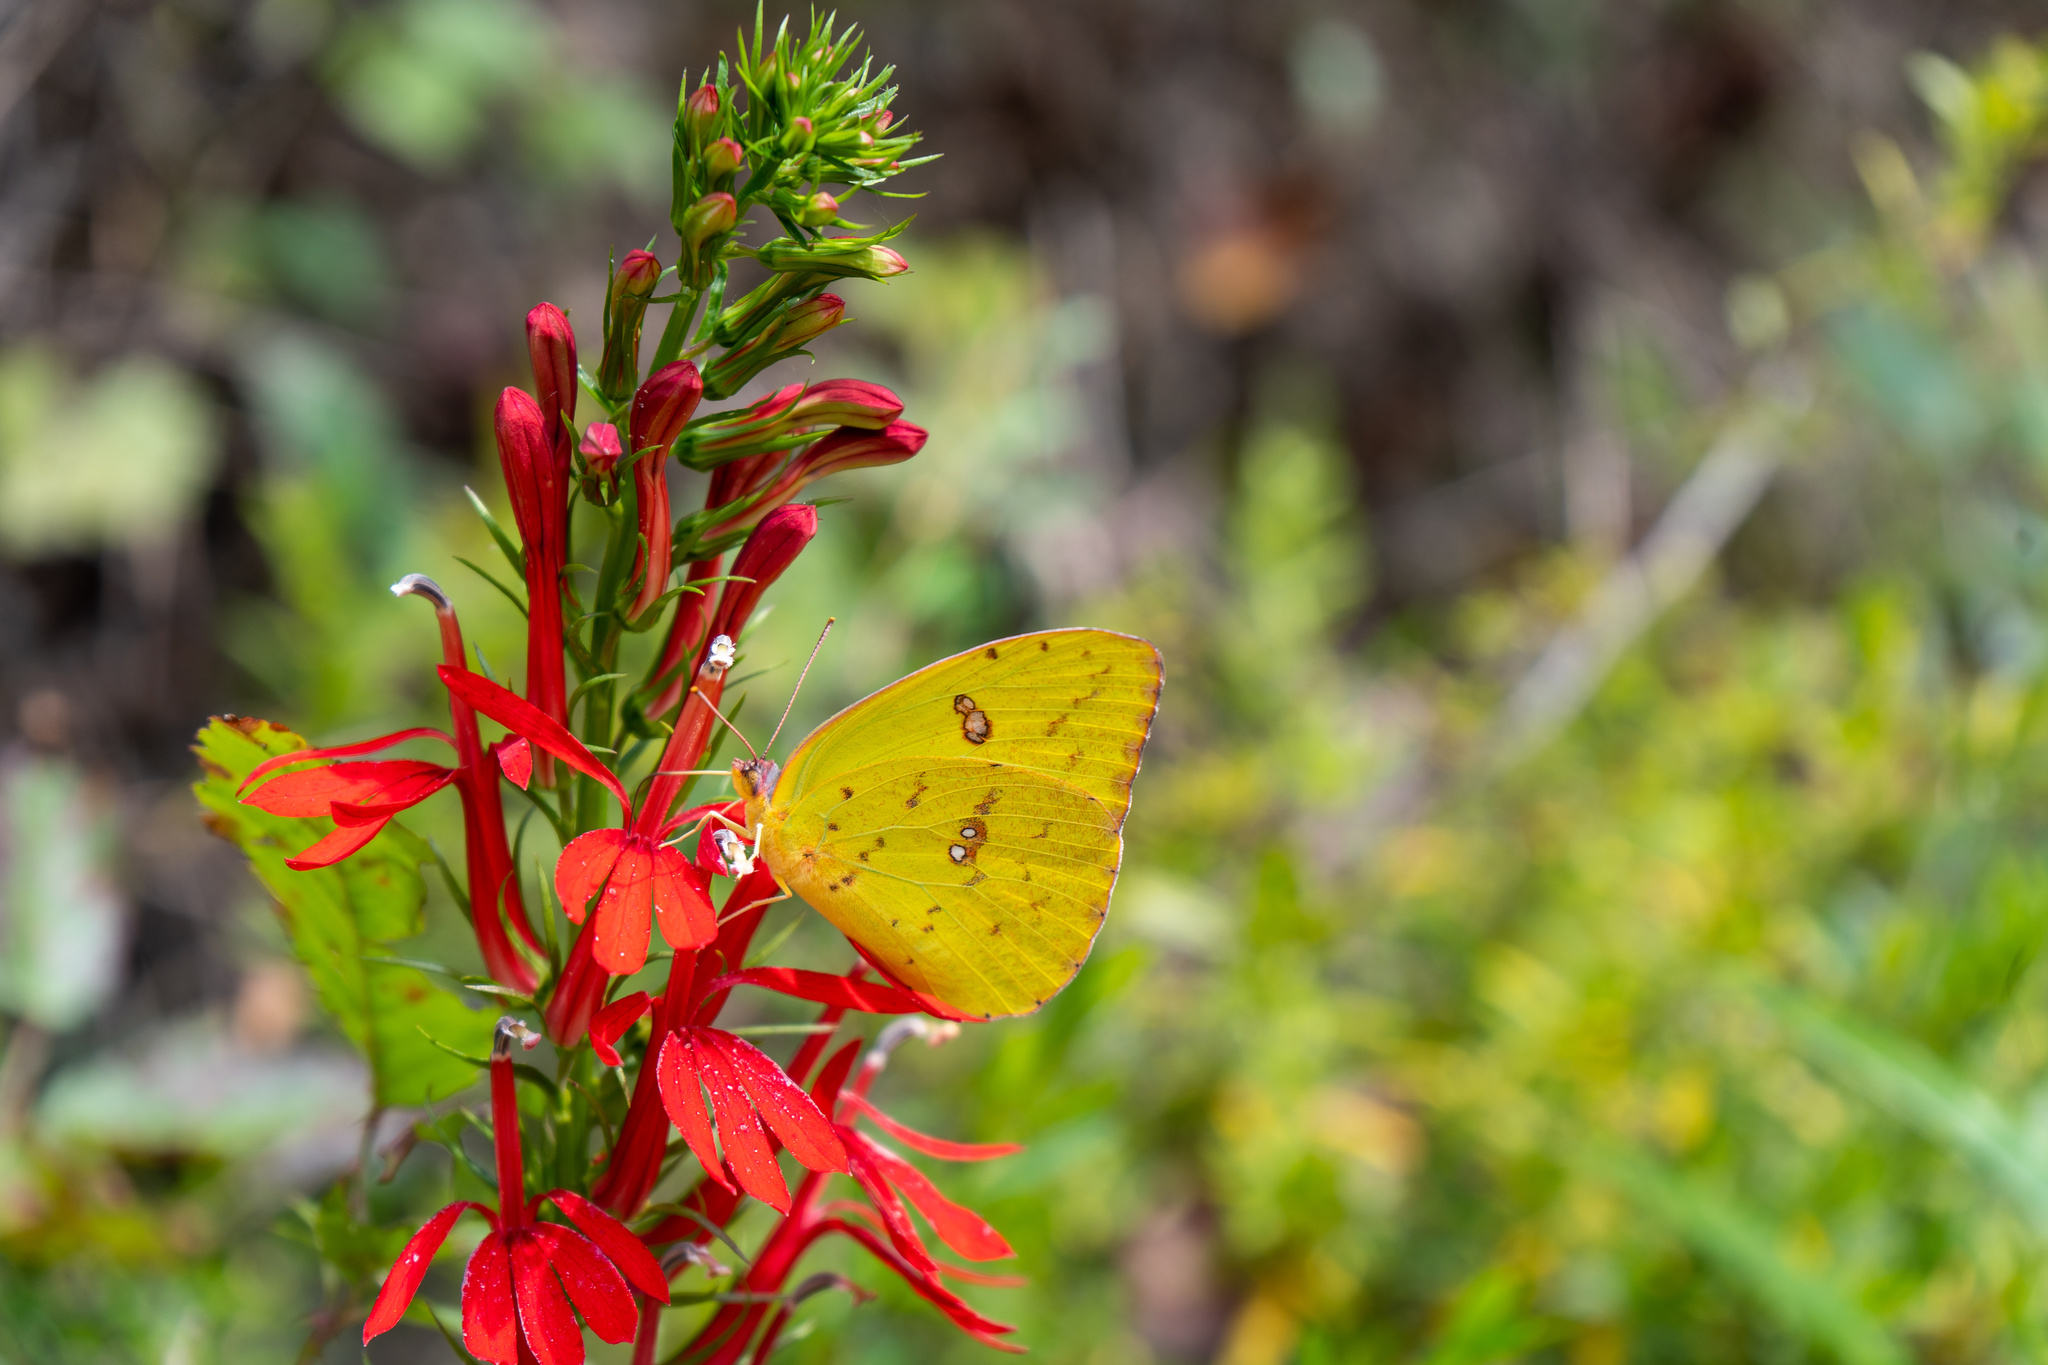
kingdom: Animalia
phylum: Arthropoda
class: Insecta
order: Lepidoptera
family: Pieridae
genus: Phoebis
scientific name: Phoebis sennae
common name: Cloudless sulphur
